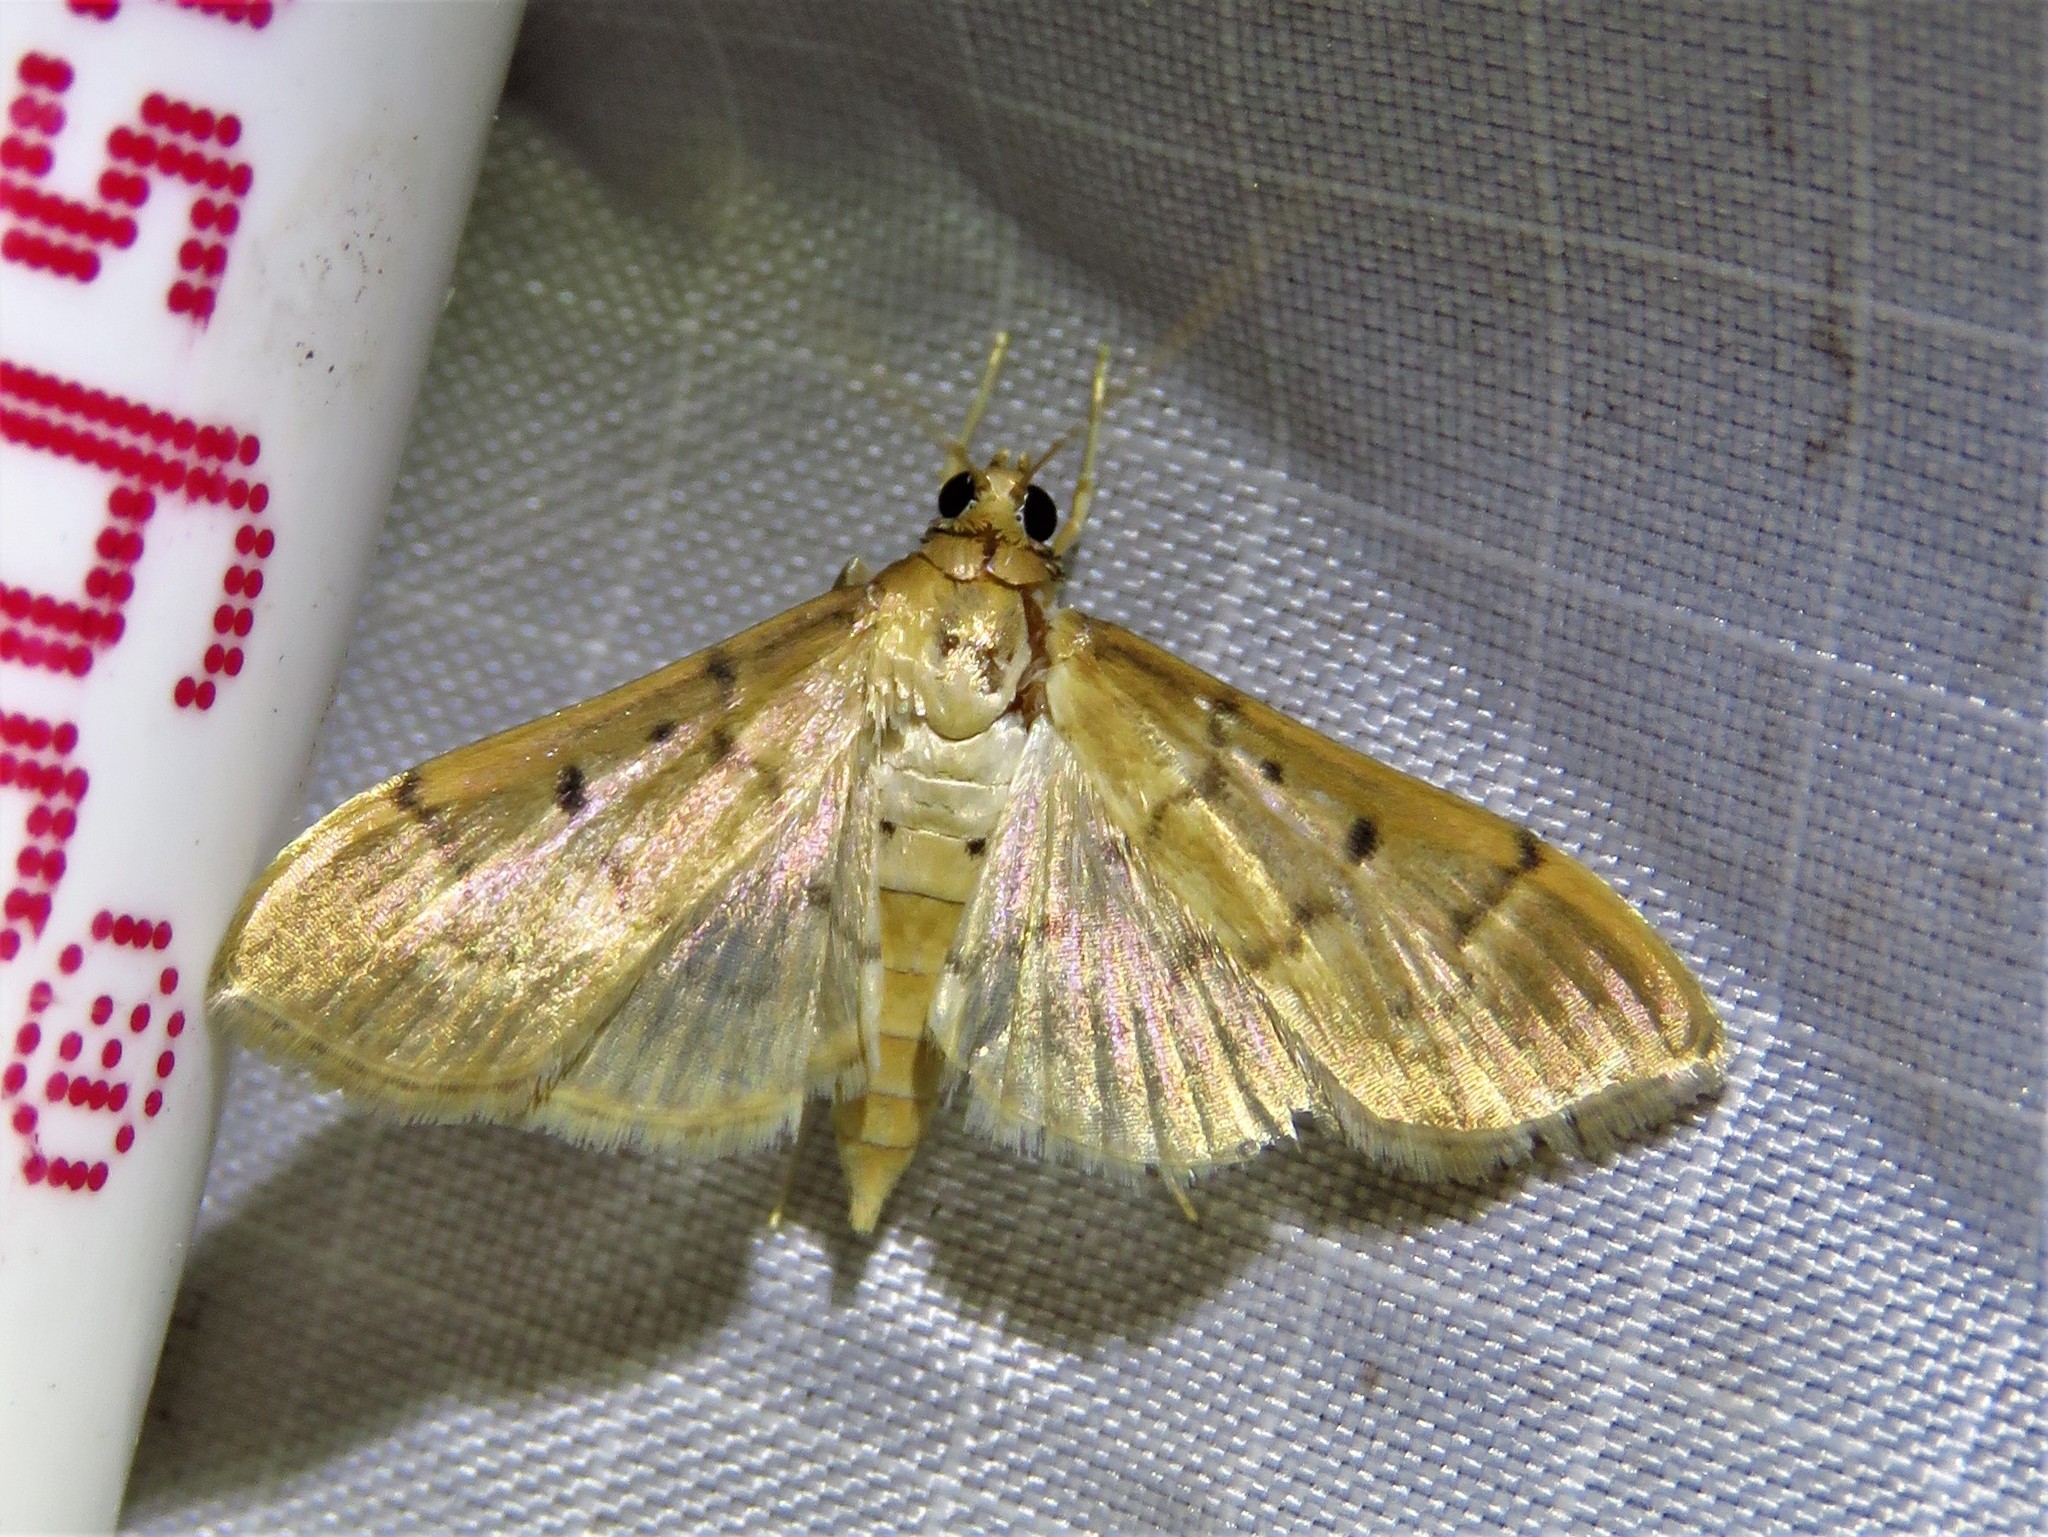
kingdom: Animalia
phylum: Arthropoda
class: Insecta
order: Lepidoptera
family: Crambidae
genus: Herpetogramma
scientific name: Herpetogramma bipunctalis
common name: Southern beet webworm
